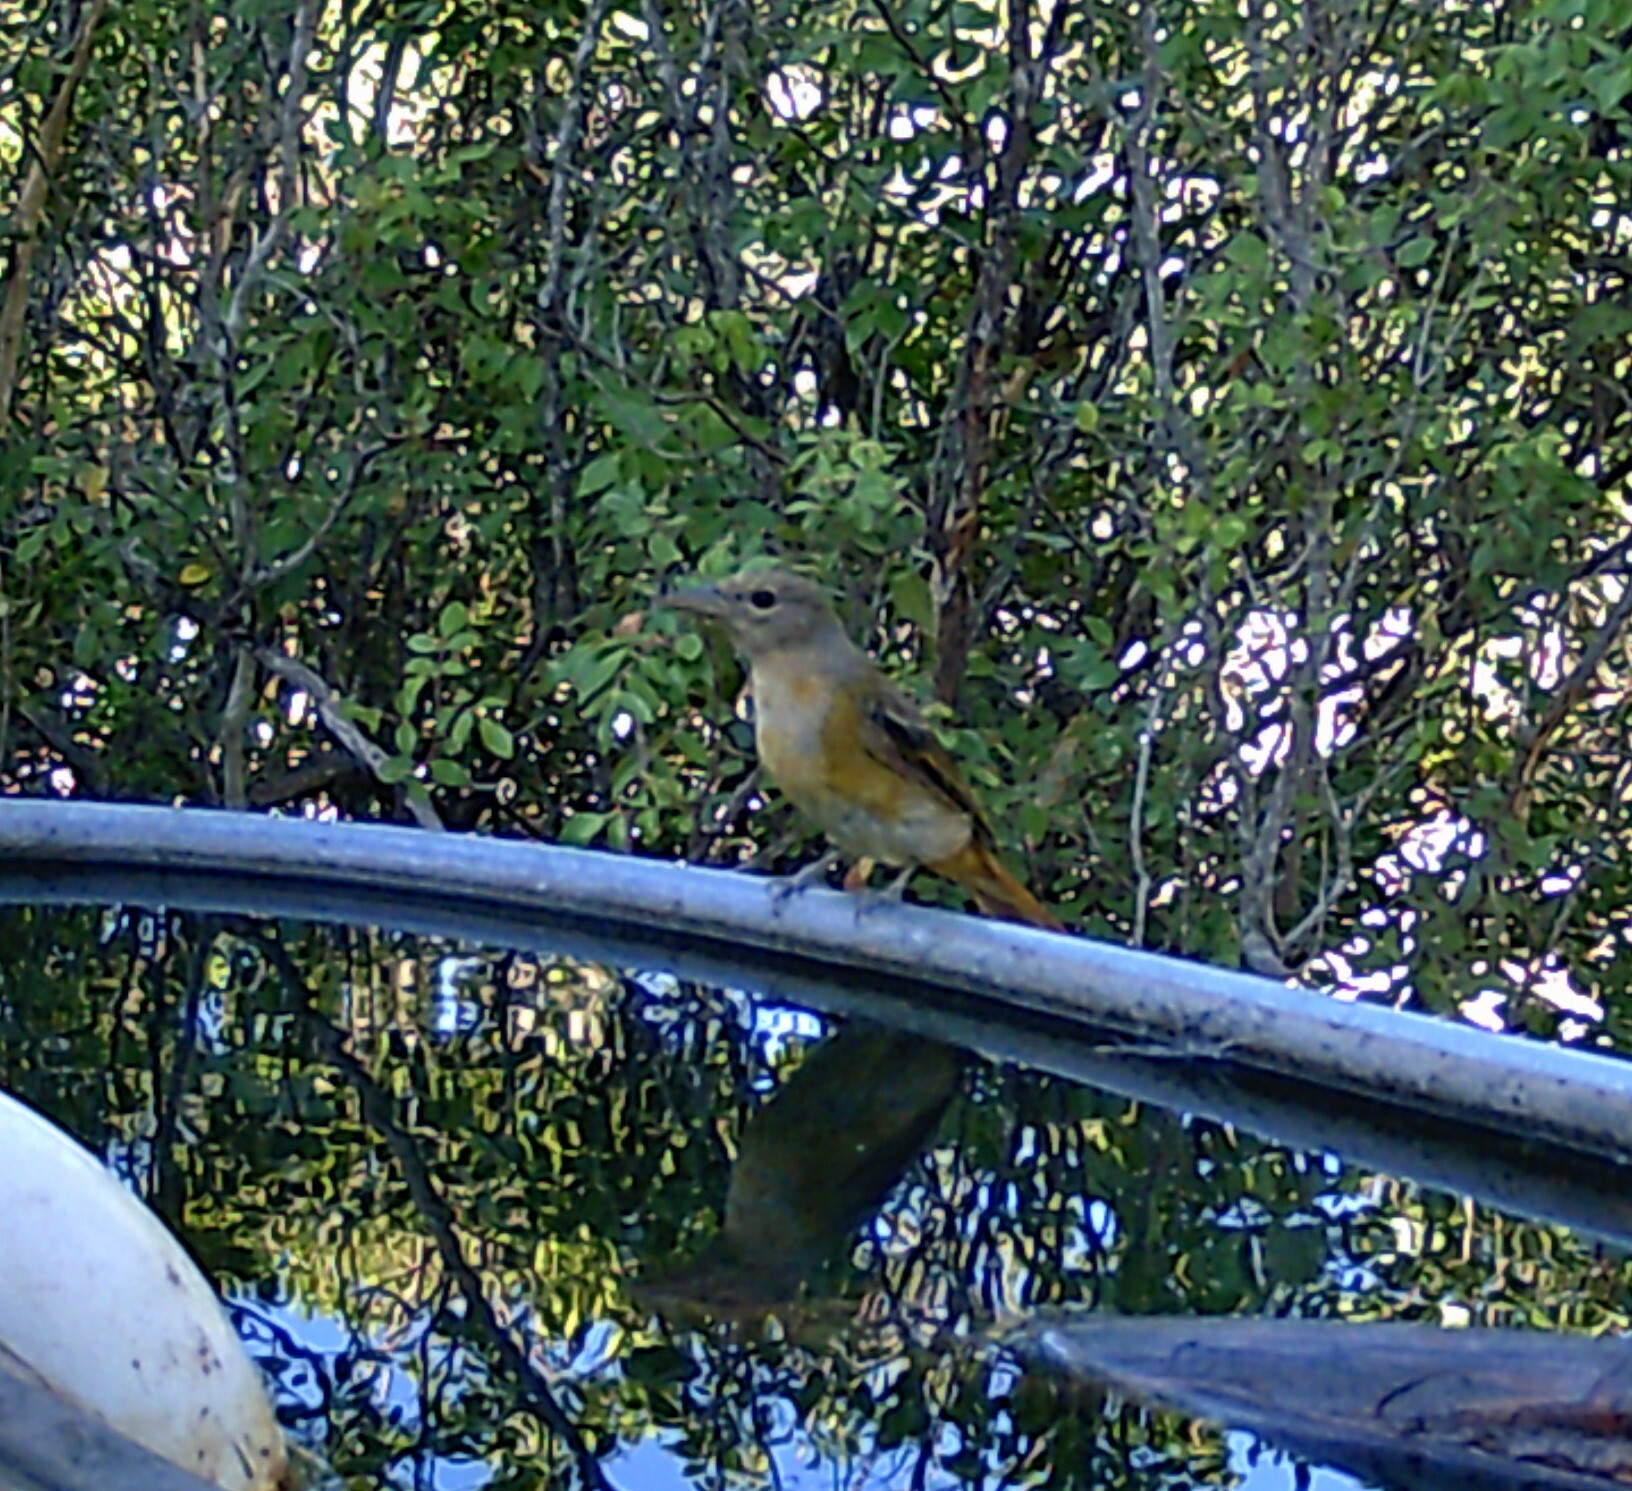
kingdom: Animalia
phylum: Chordata
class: Aves
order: Passeriformes
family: Cardinalidae
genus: Piranga
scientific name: Piranga rubra
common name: Summer tanager
